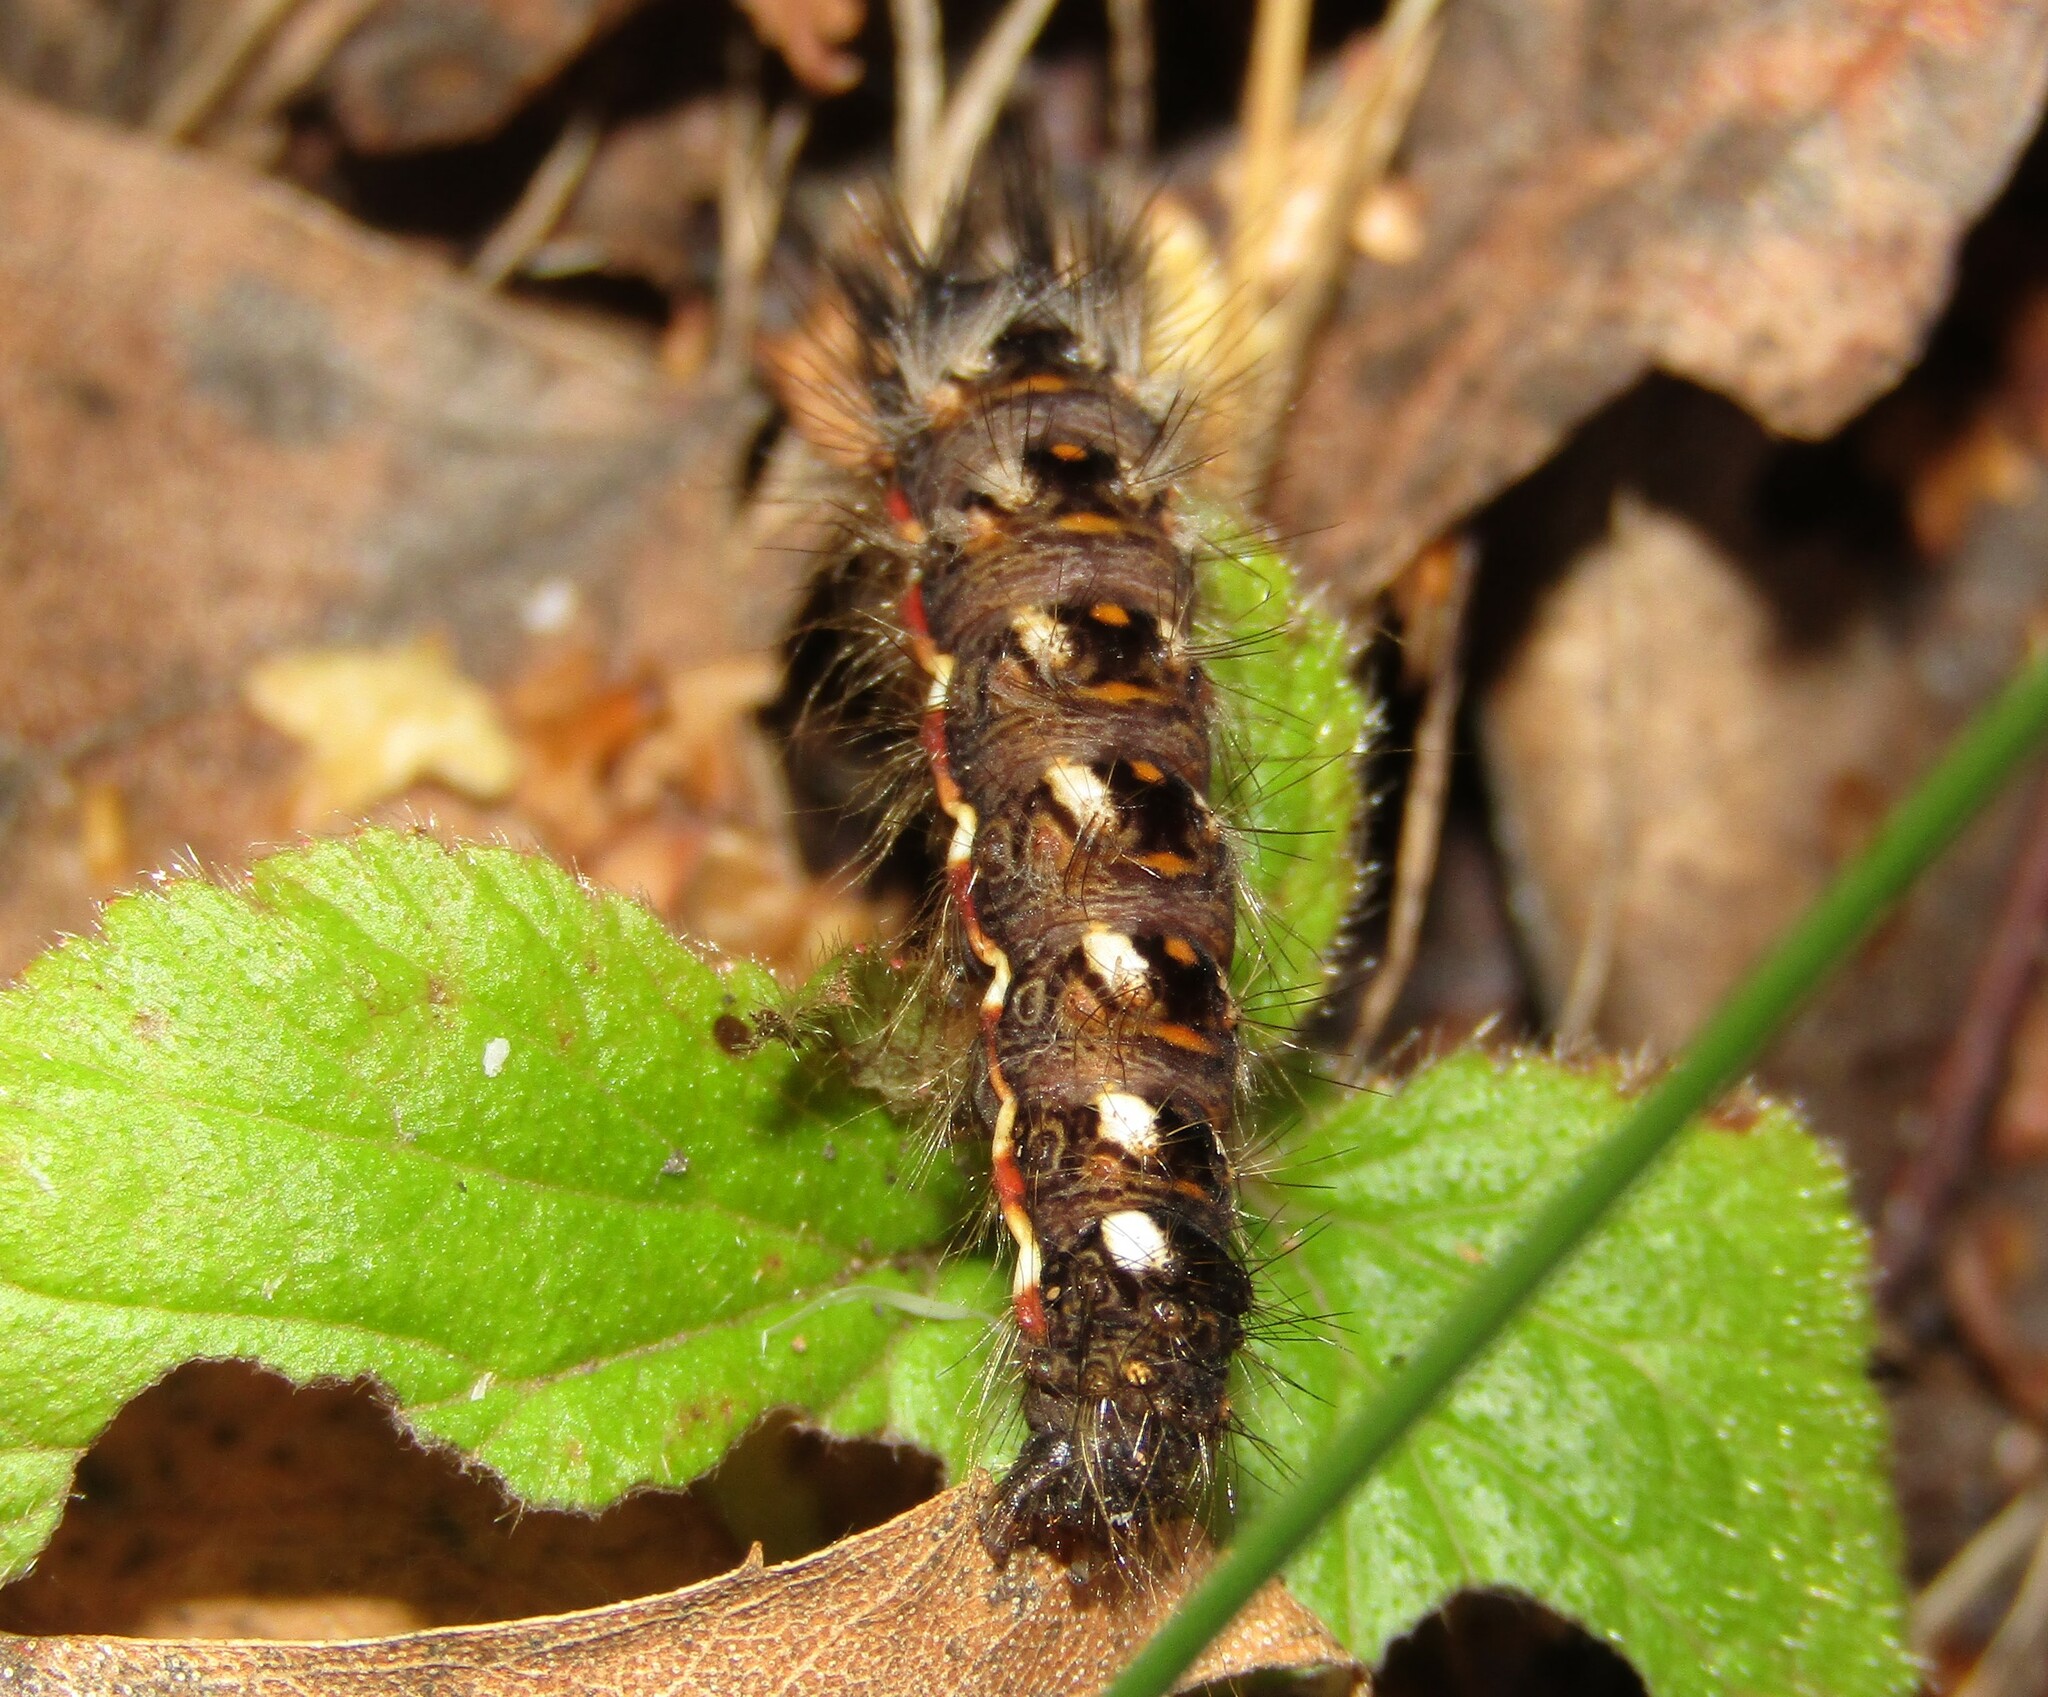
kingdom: Animalia
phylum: Arthropoda
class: Insecta
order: Lepidoptera
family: Noctuidae
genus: Acronicta
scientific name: Acronicta rumicis
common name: Knot grass
